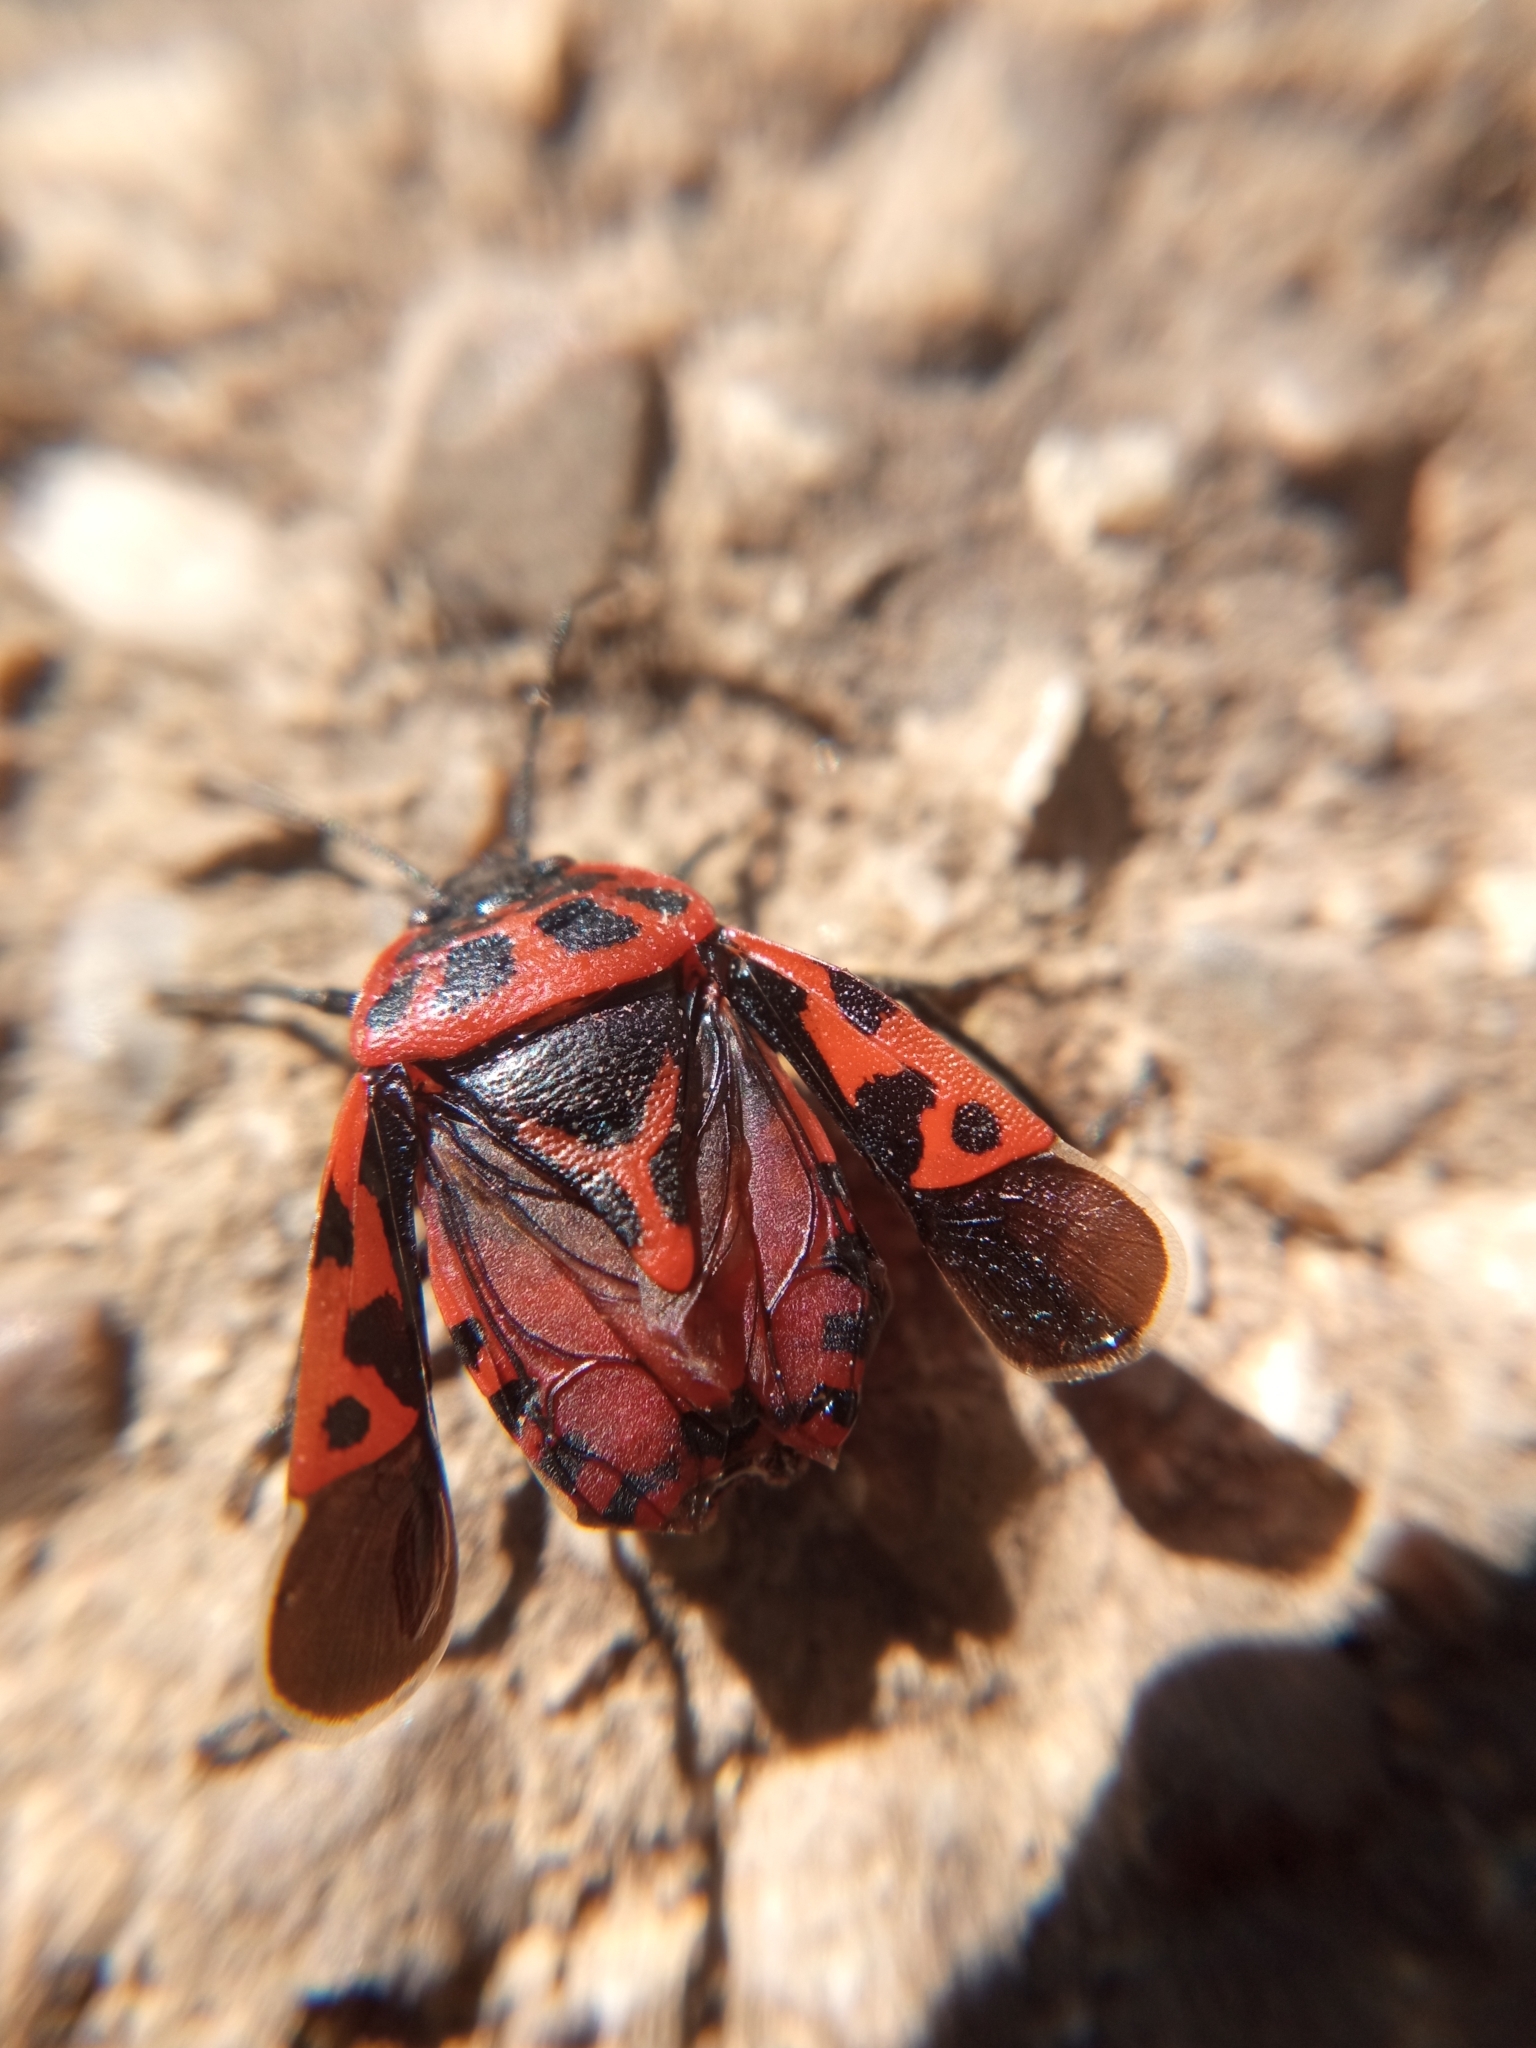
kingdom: Animalia
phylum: Arthropoda
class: Insecta
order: Hemiptera
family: Pentatomidae
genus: Eurydema
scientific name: Eurydema ventralis
